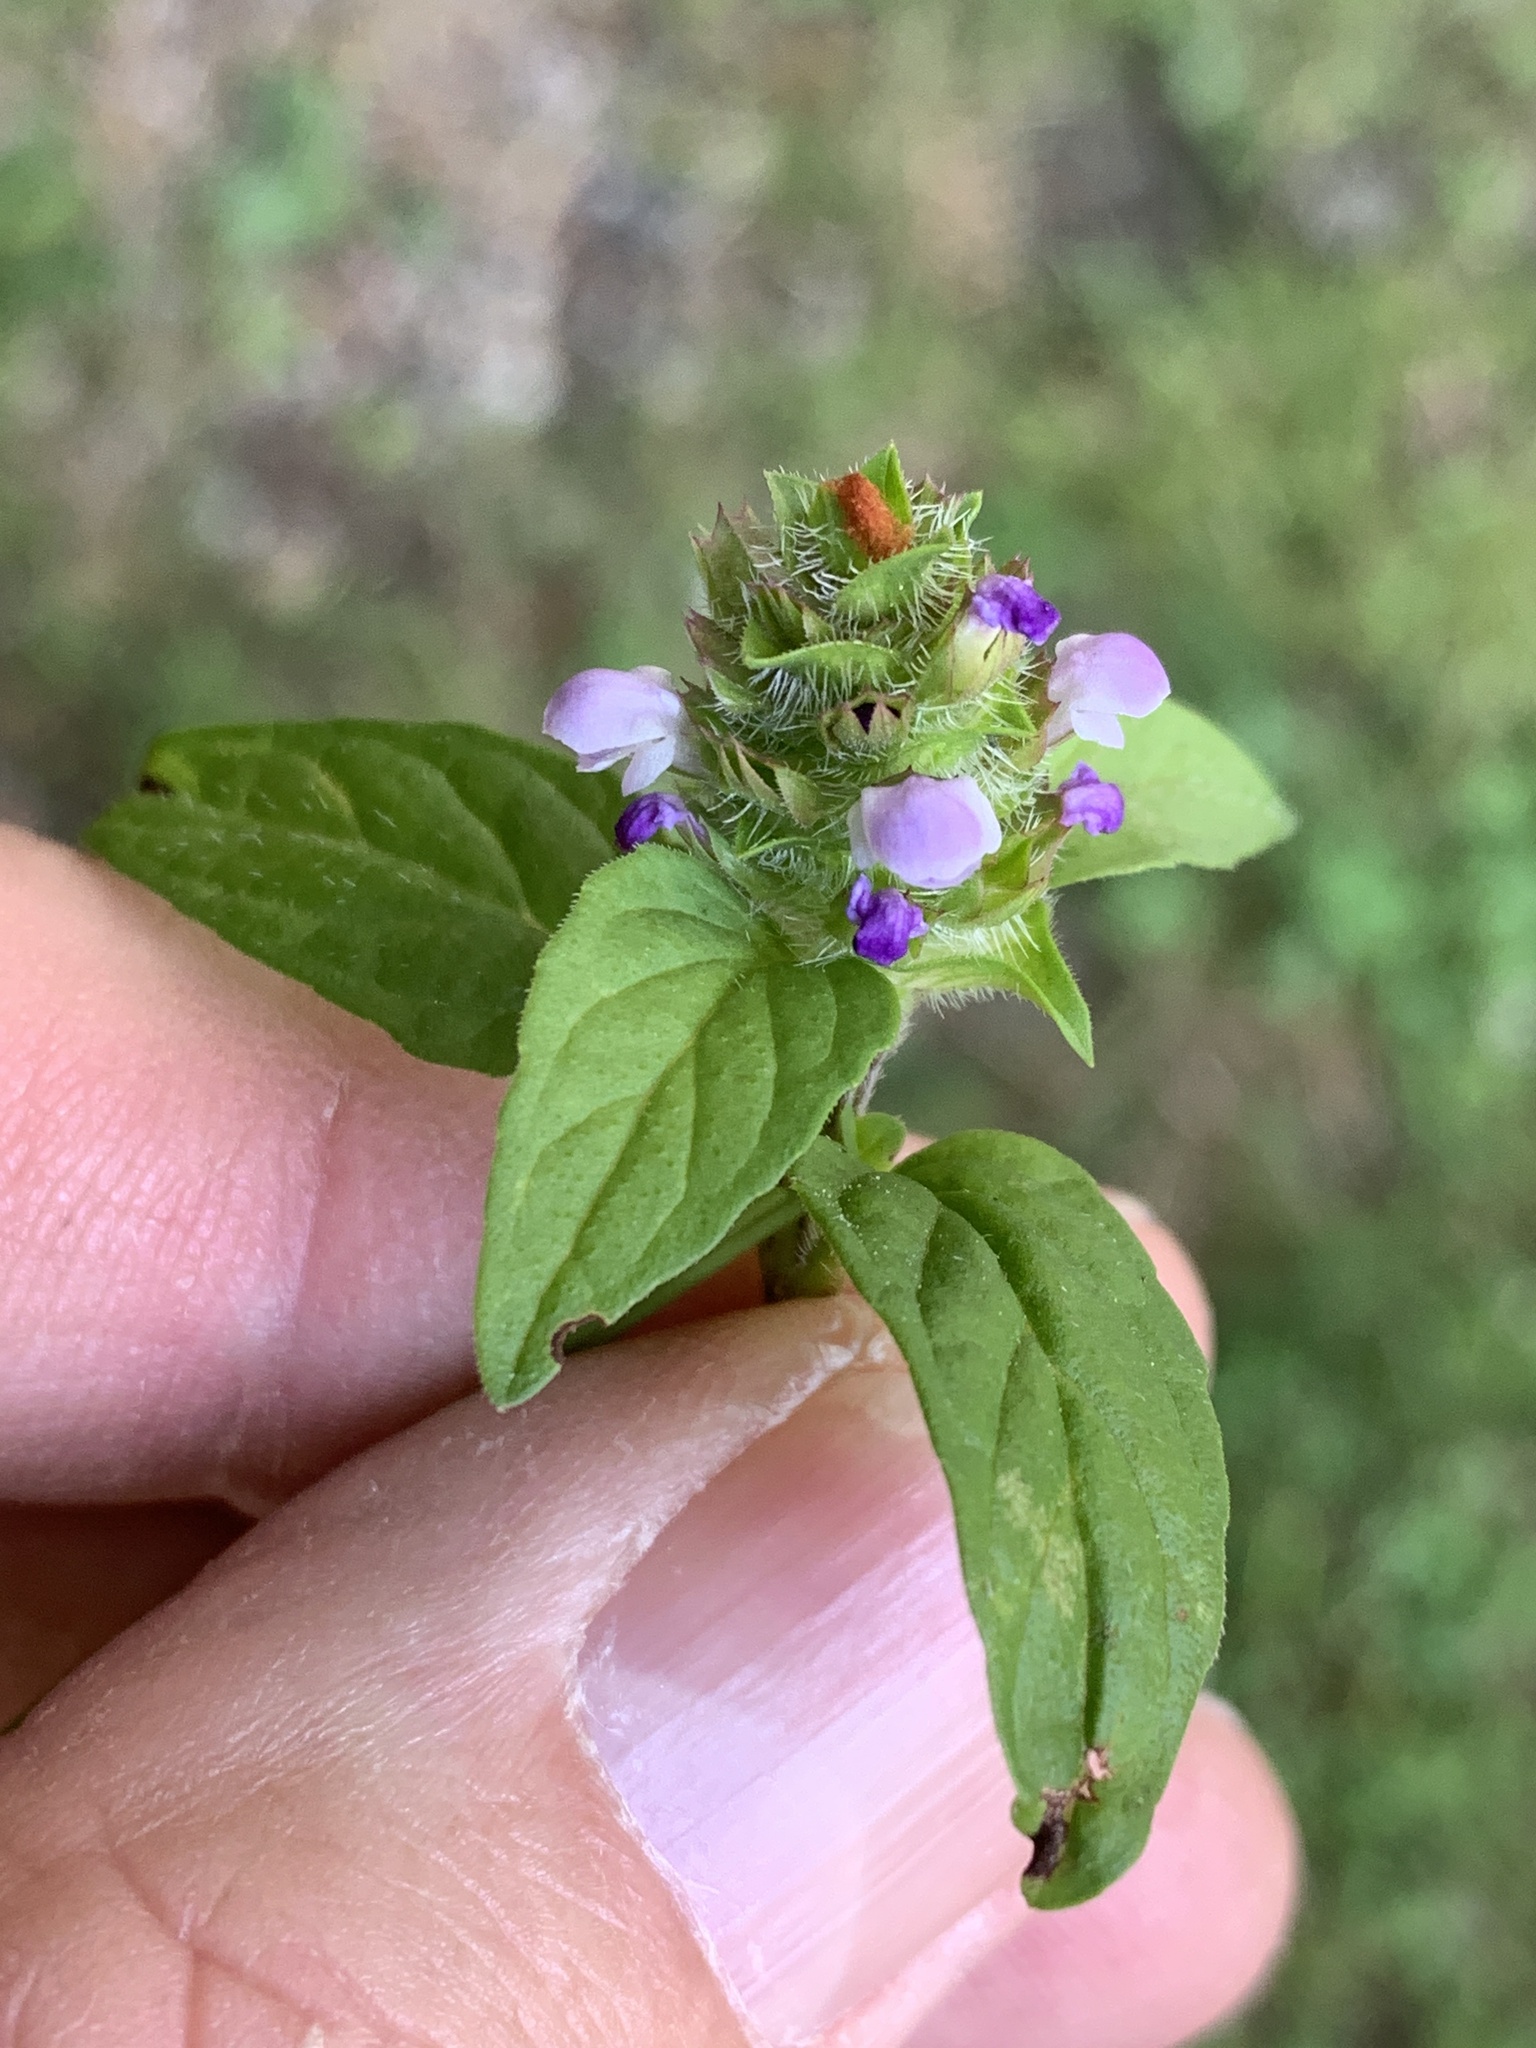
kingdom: Plantae
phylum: Tracheophyta
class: Magnoliopsida
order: Lamiales
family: Lamiaceae
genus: Prunella
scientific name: Prunella vulgaris
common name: Heal-all
